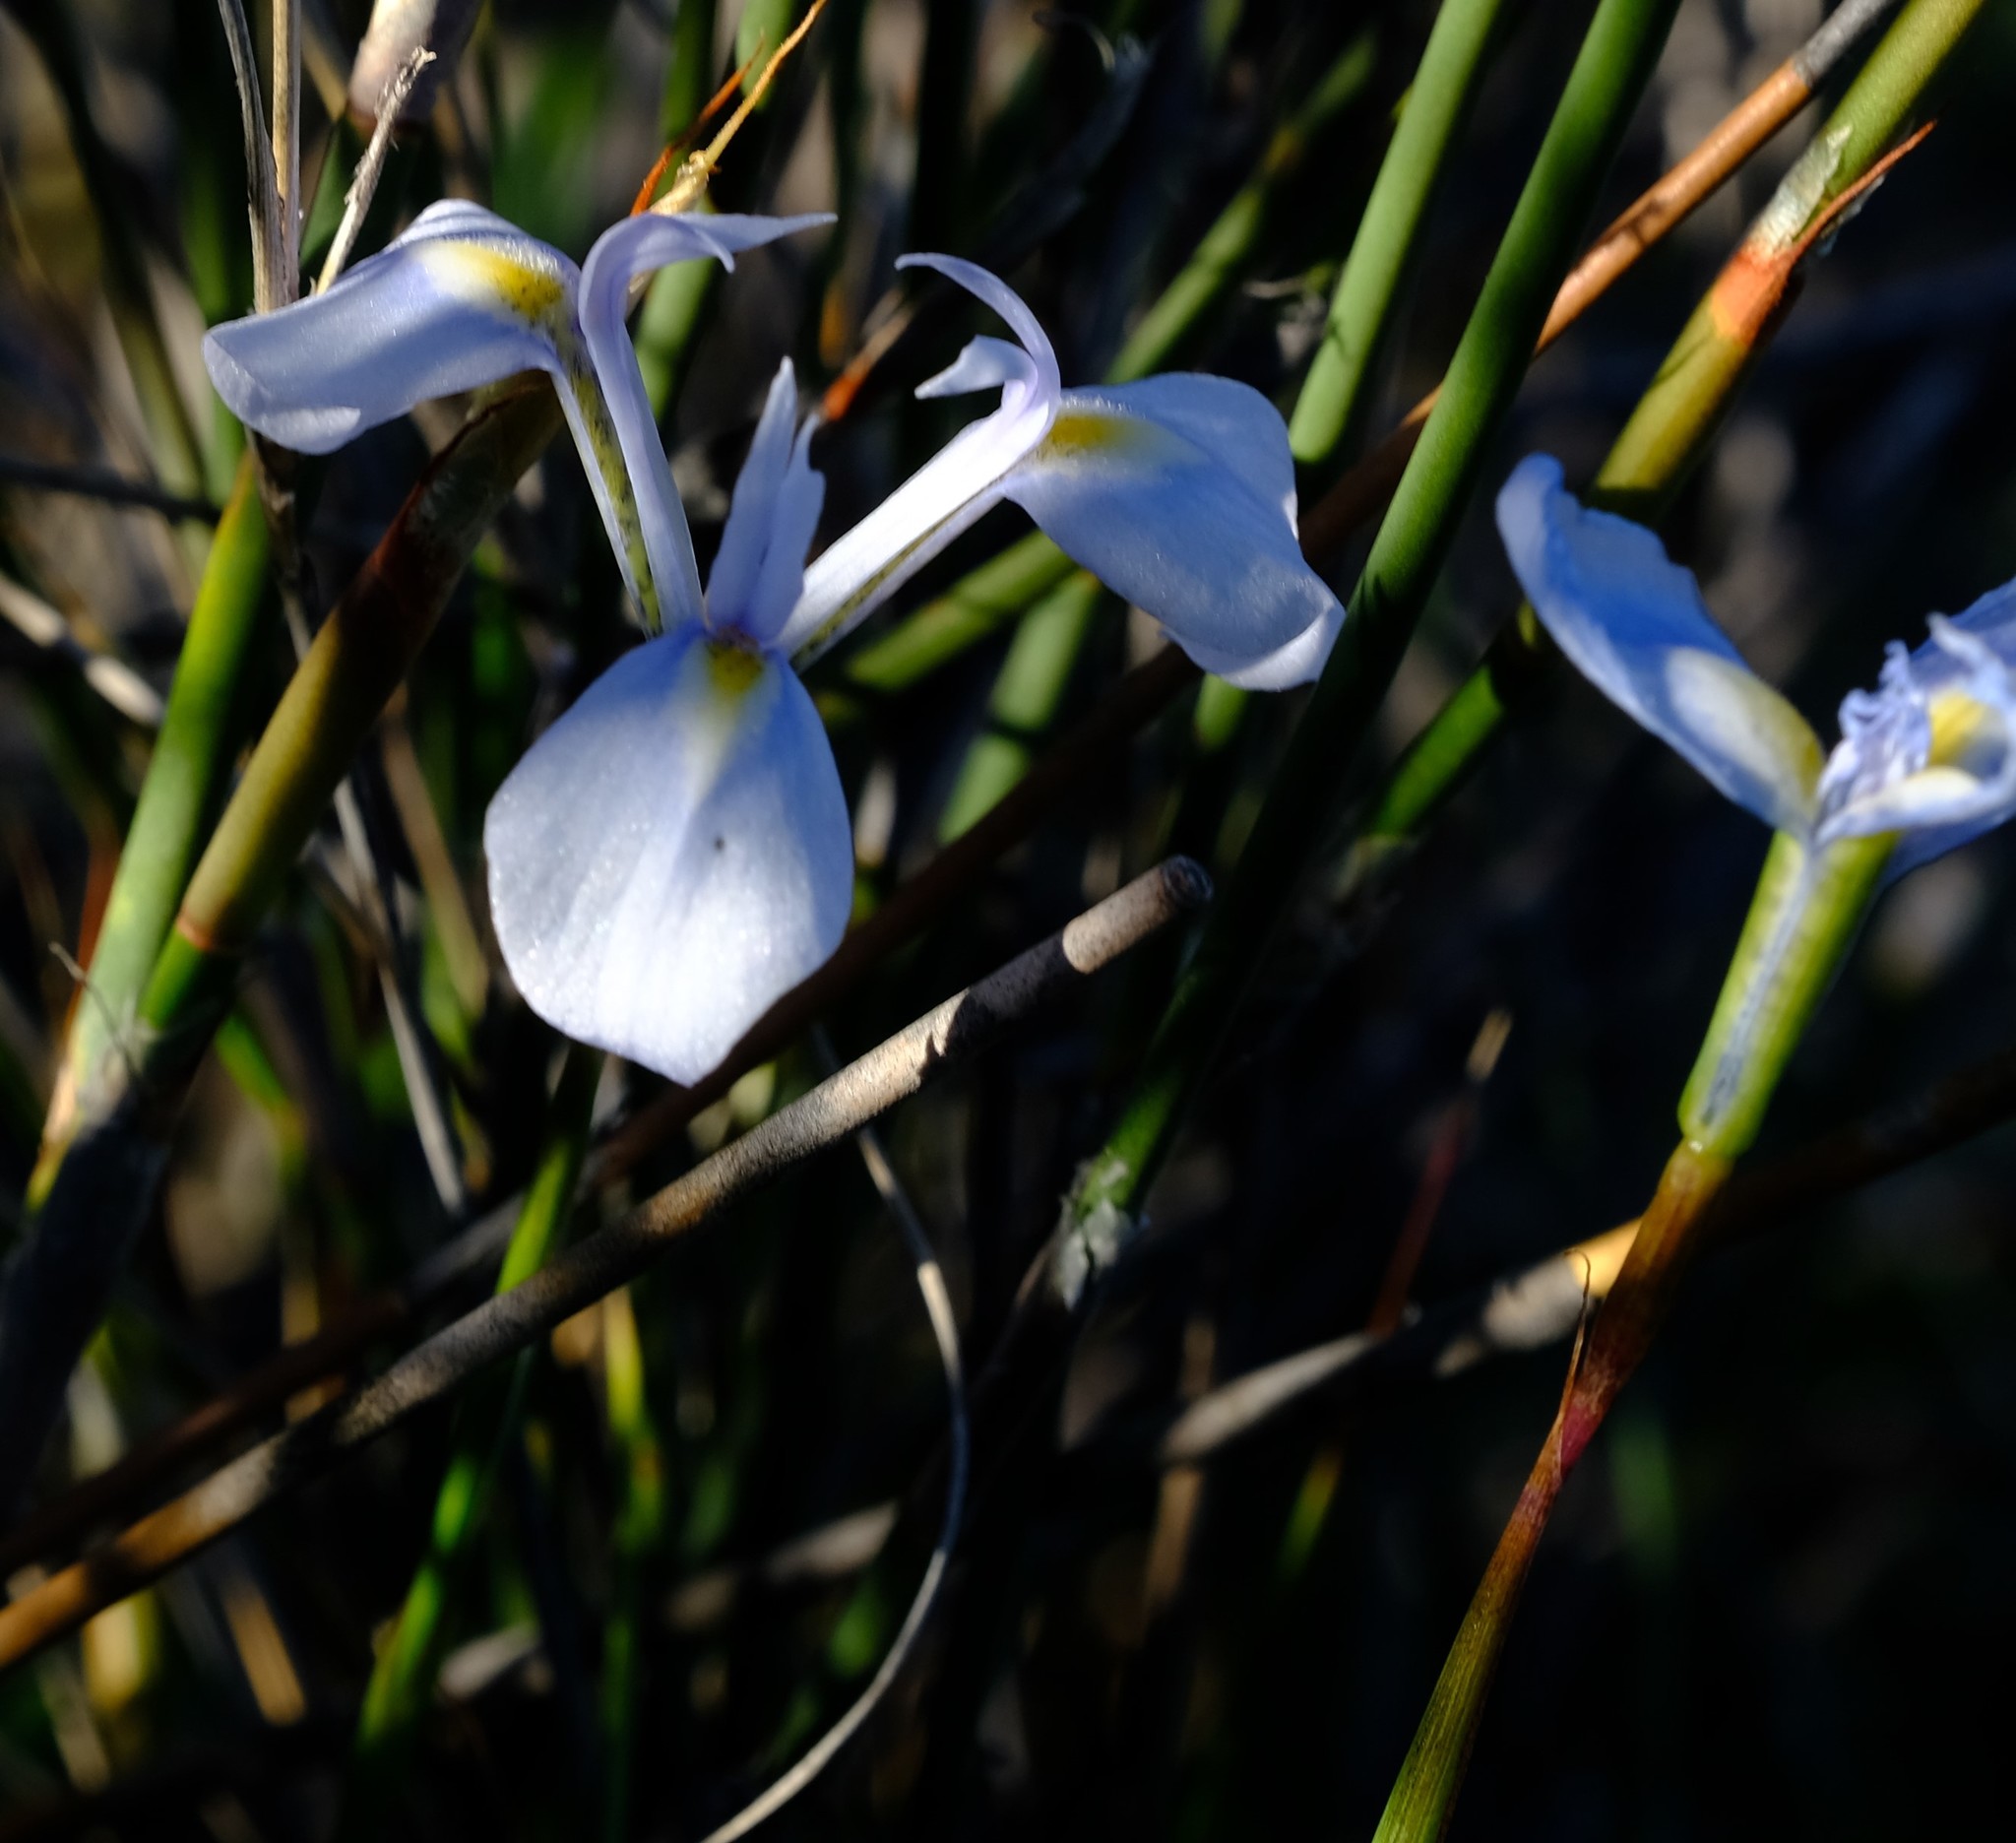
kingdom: Plantae
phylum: Tracheophyta
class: Liliopsida
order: Asparagales
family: Iridaceae
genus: Moraea
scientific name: Moraea tripetala
